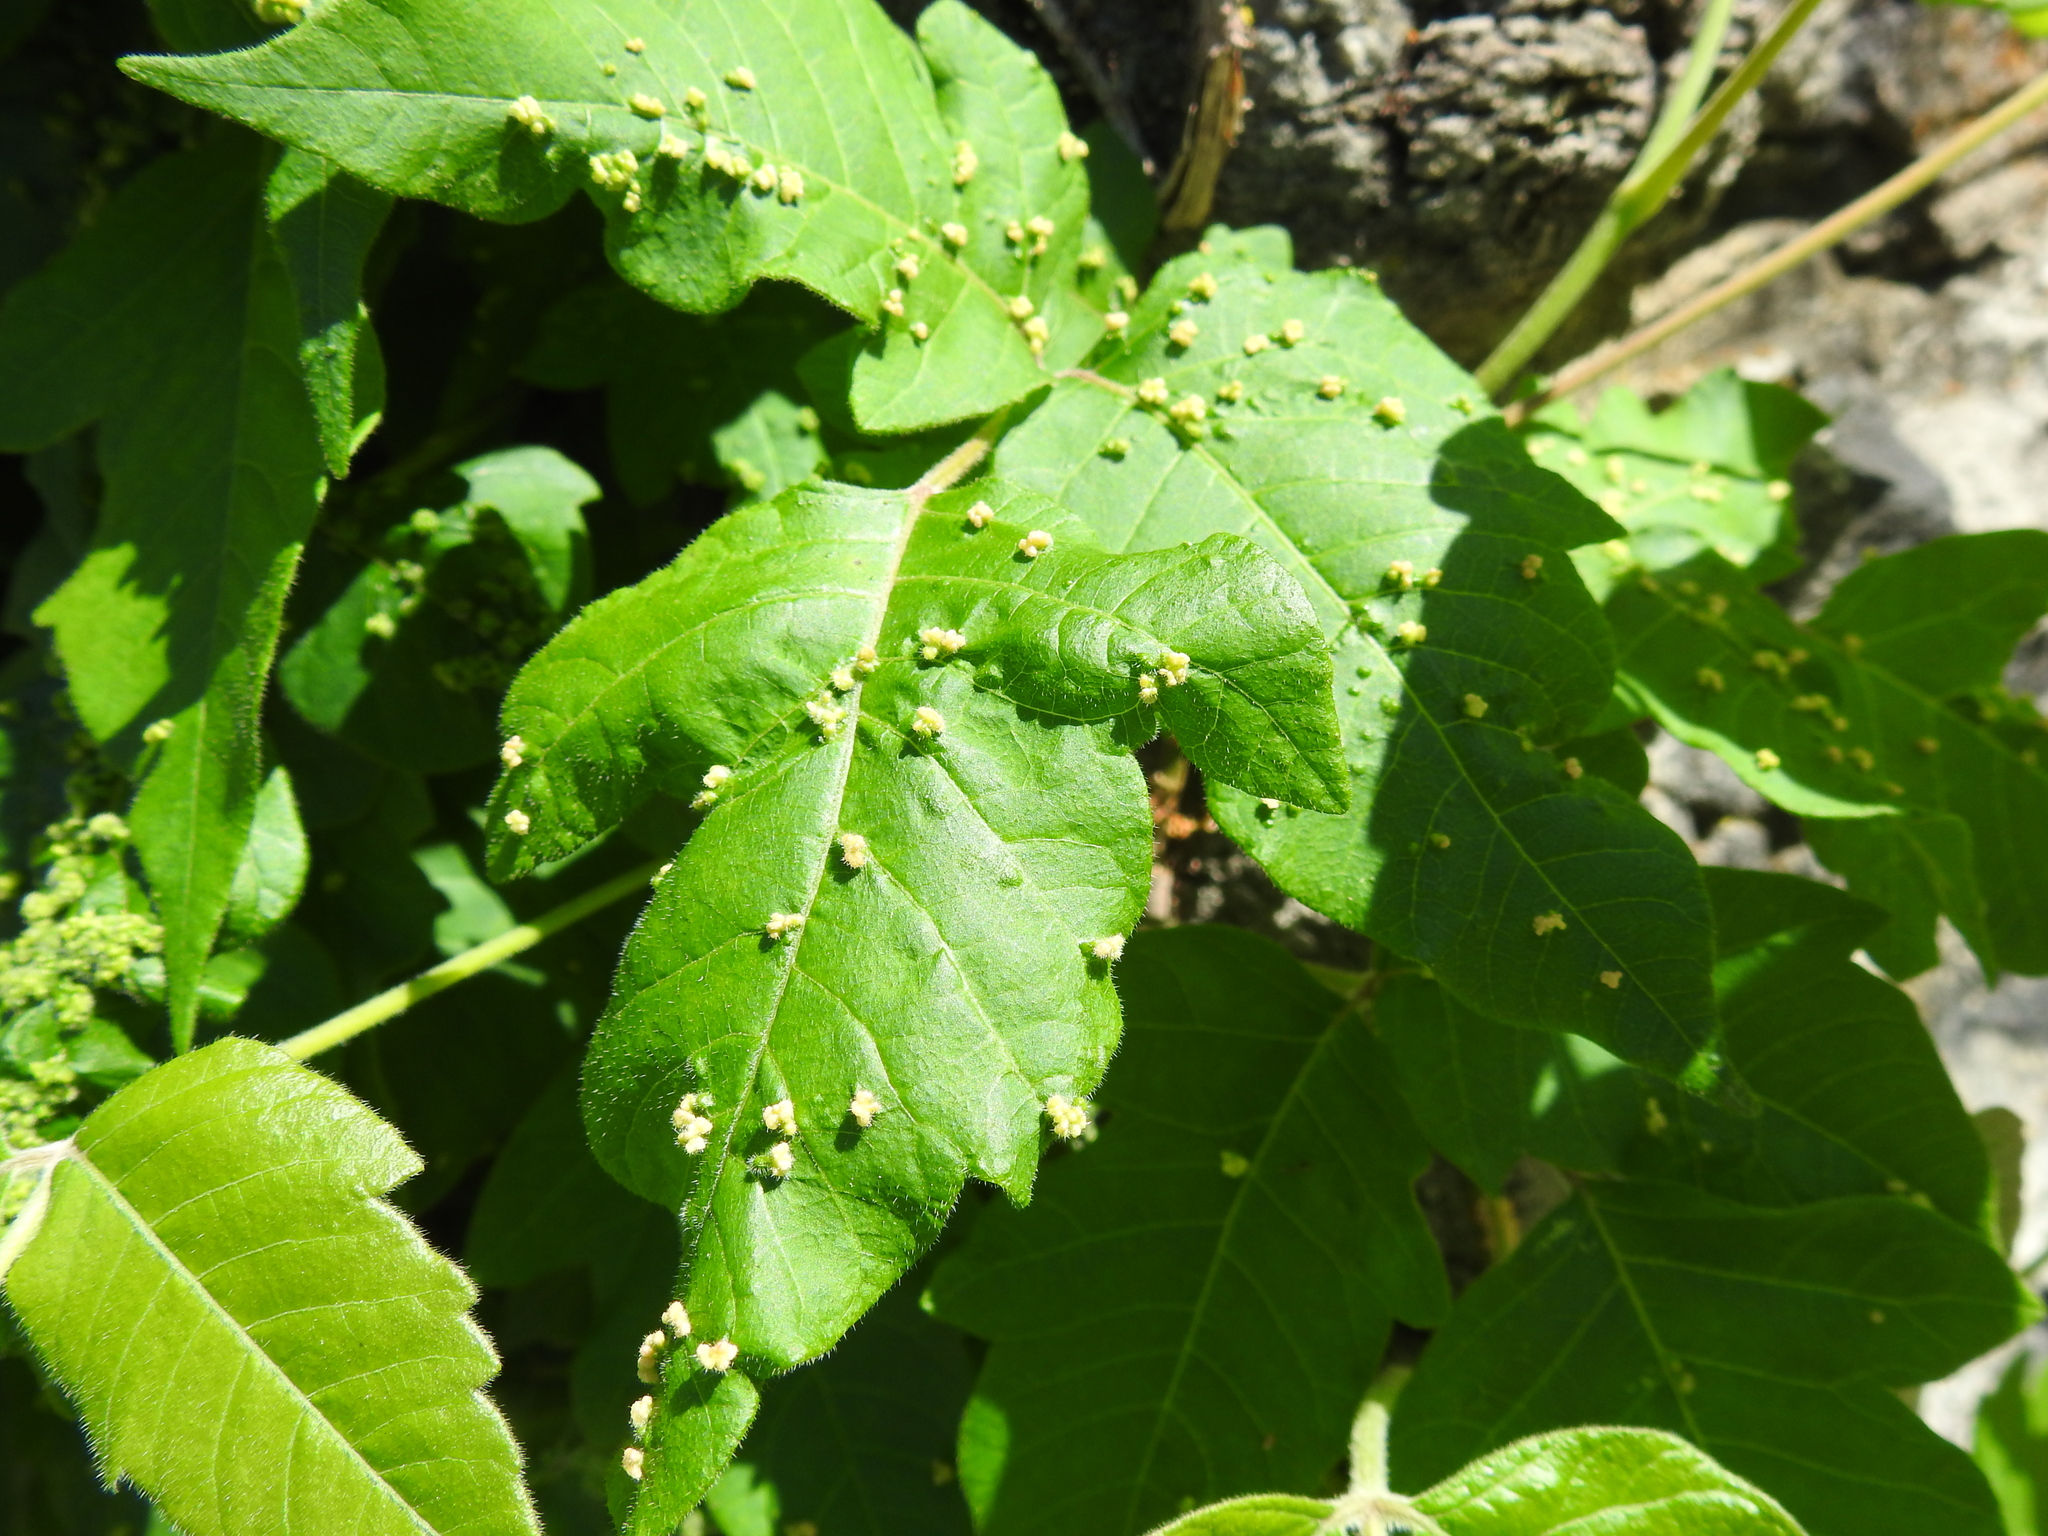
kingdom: Animalia
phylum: Arthropoda
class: Arachnida
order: Trombidiformes
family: Eriophyidae
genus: Aculops
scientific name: Aculops
